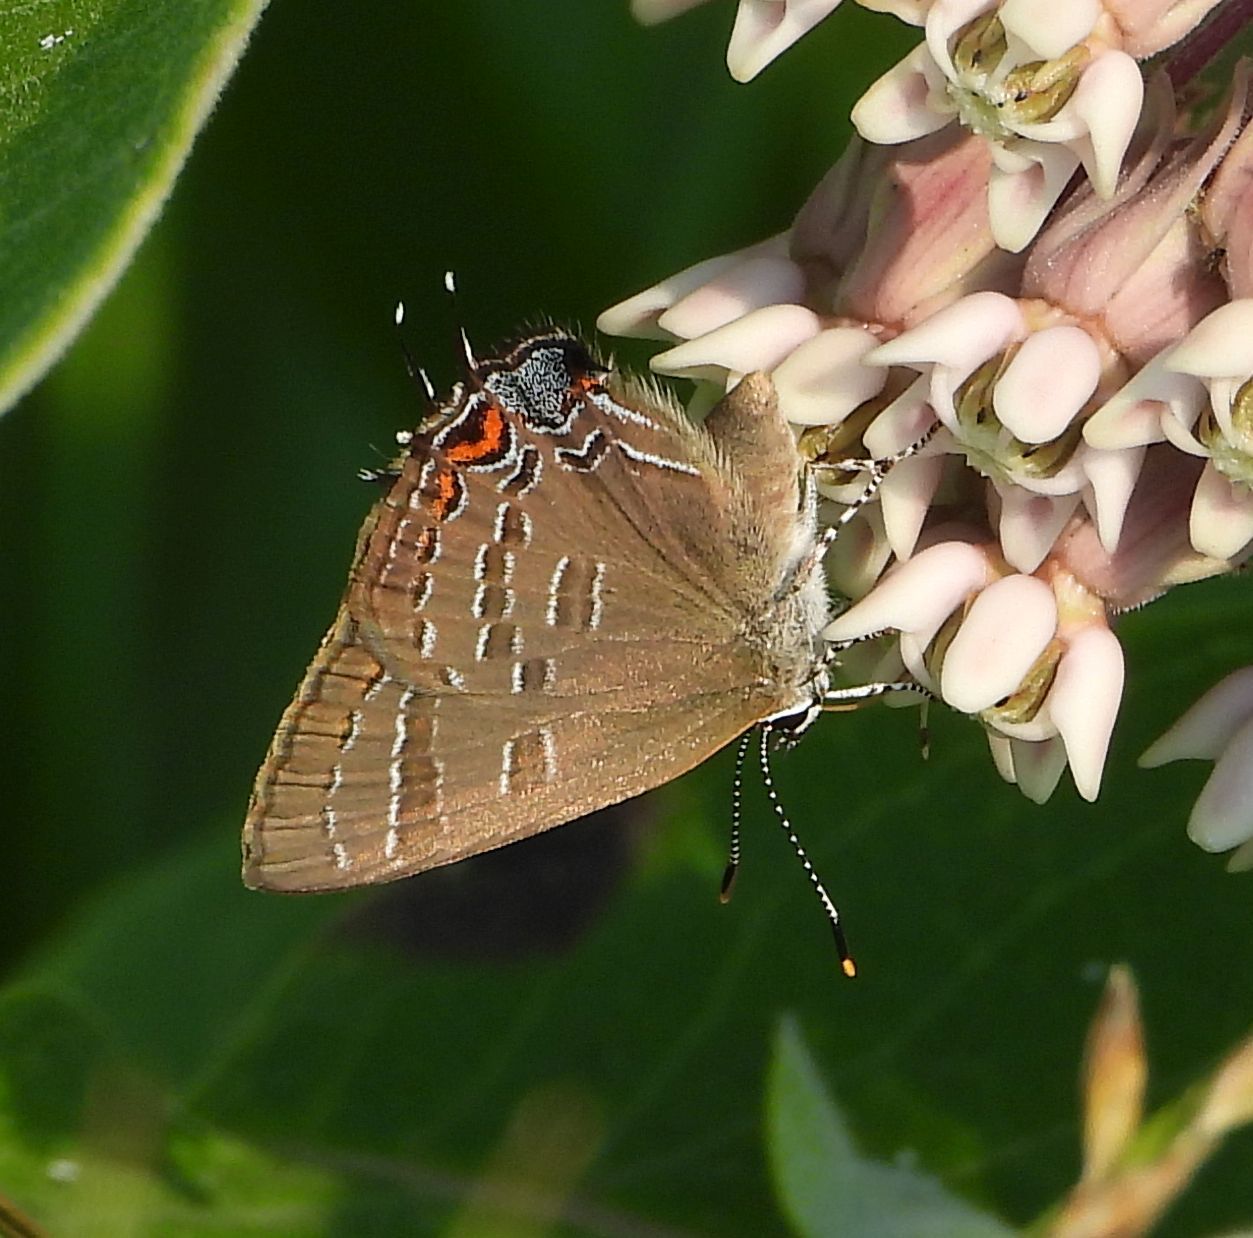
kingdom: Animalia
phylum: Arthropoda
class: Insecta
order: Lepidoptera
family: Lycaenidae
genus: Satyrium
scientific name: Satyrium calanus
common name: Banded hairstreak
